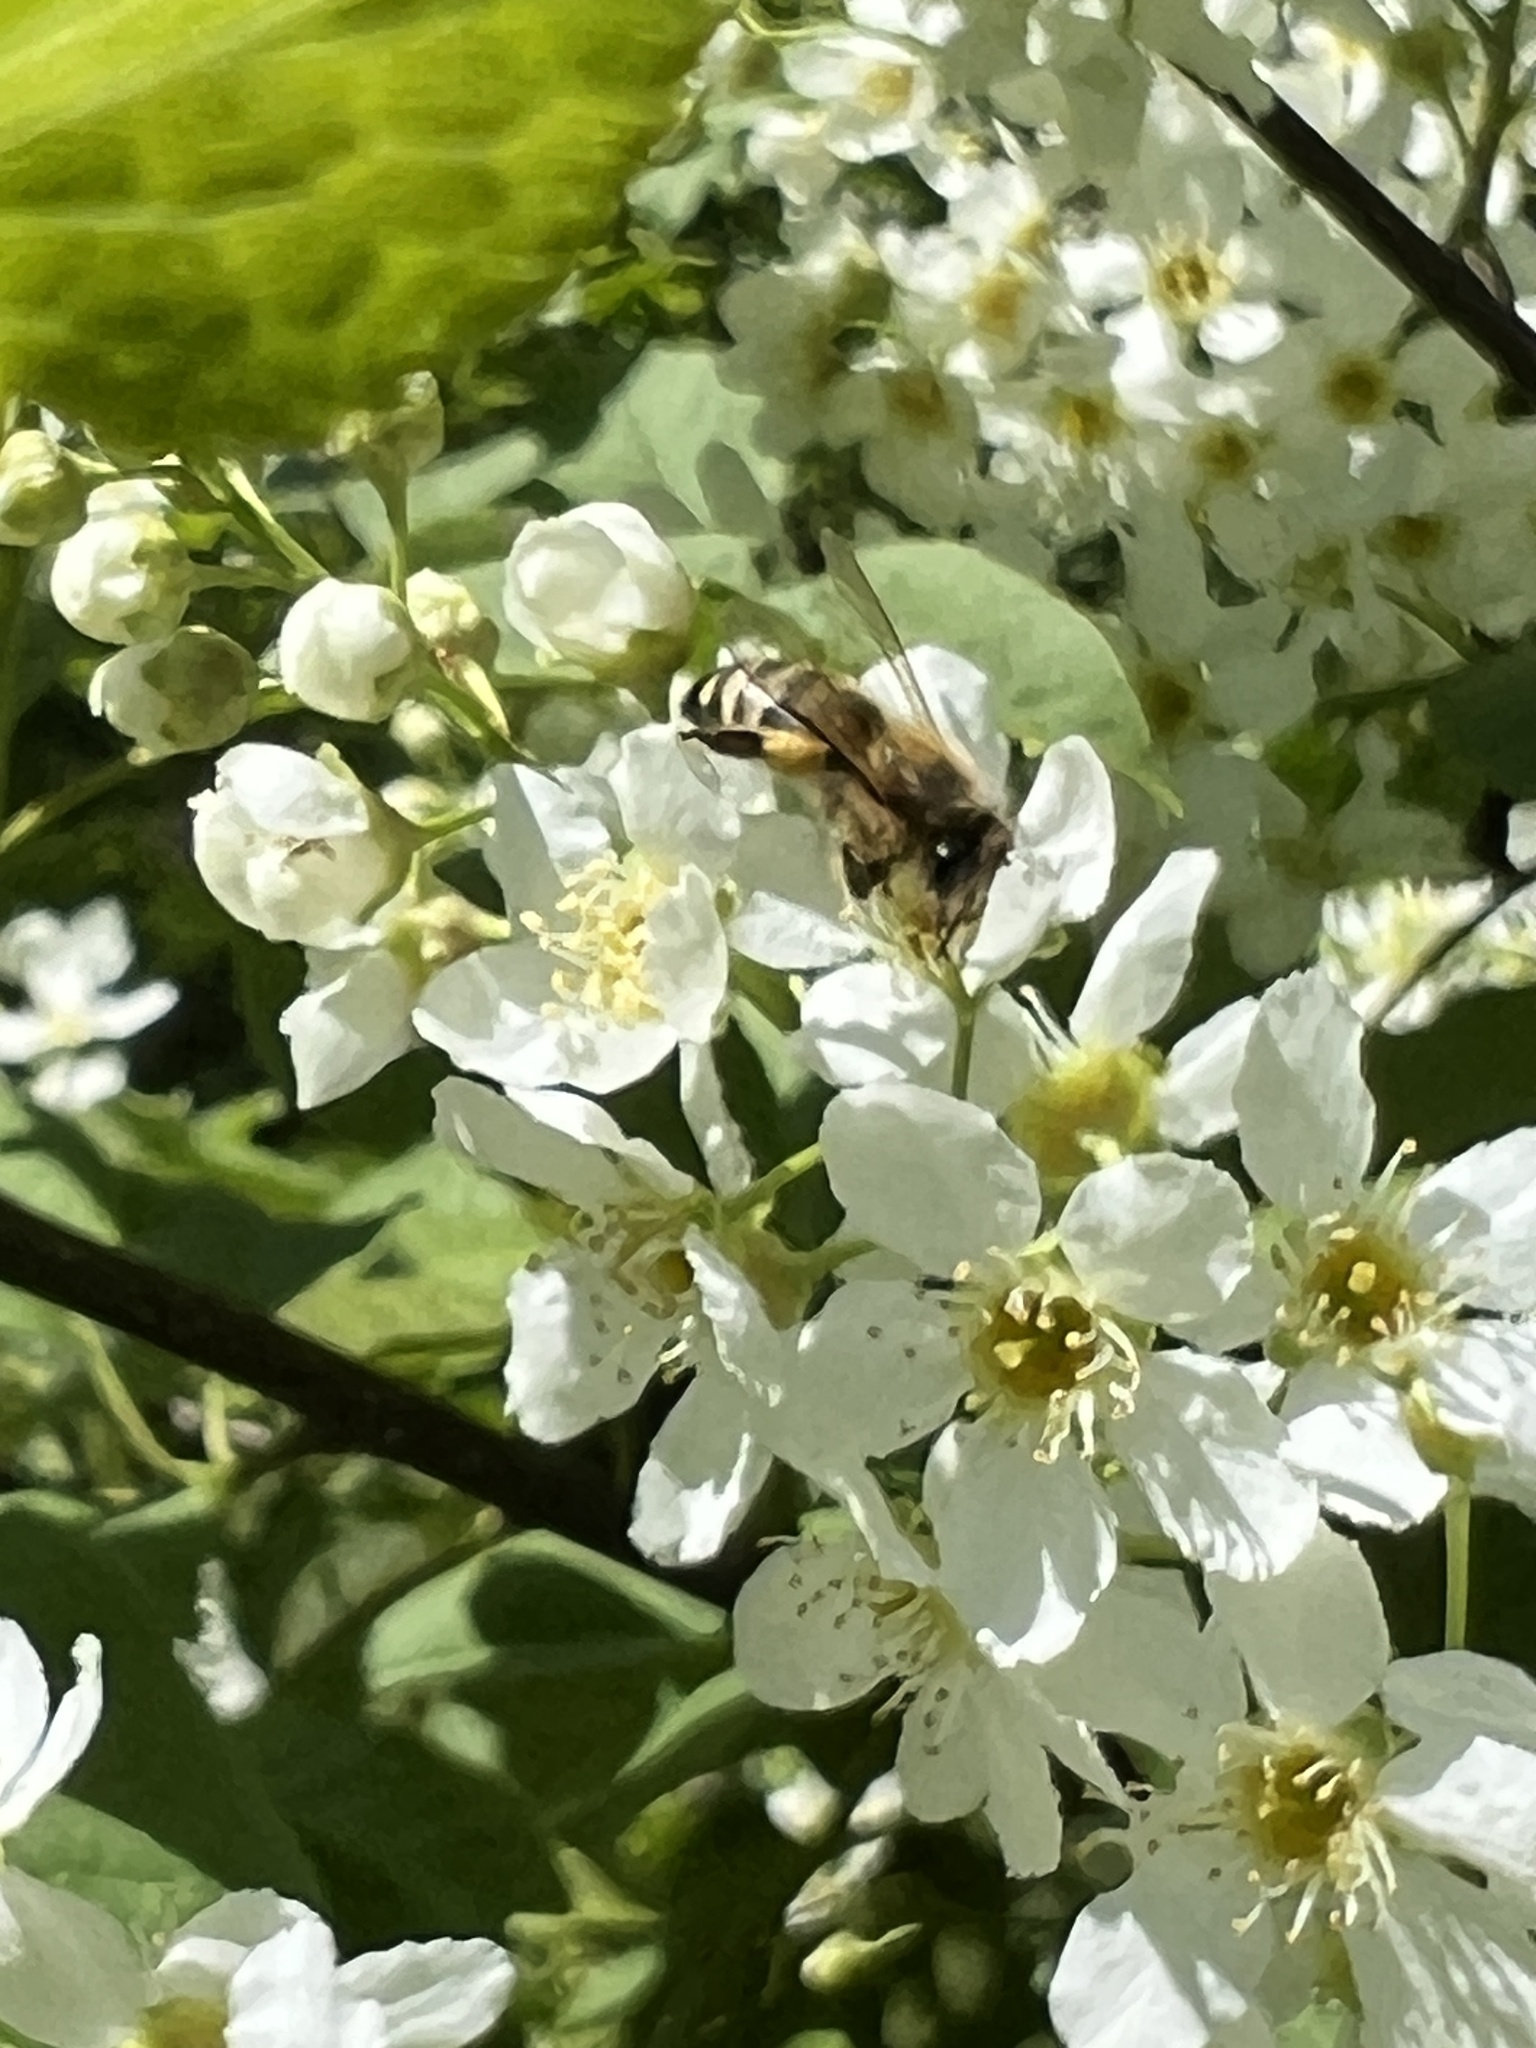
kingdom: Animalia
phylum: Arthropoda
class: Insecta
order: Hymenoptera
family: Apidae
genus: Apis
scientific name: Apis mellifera
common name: Honey bee
